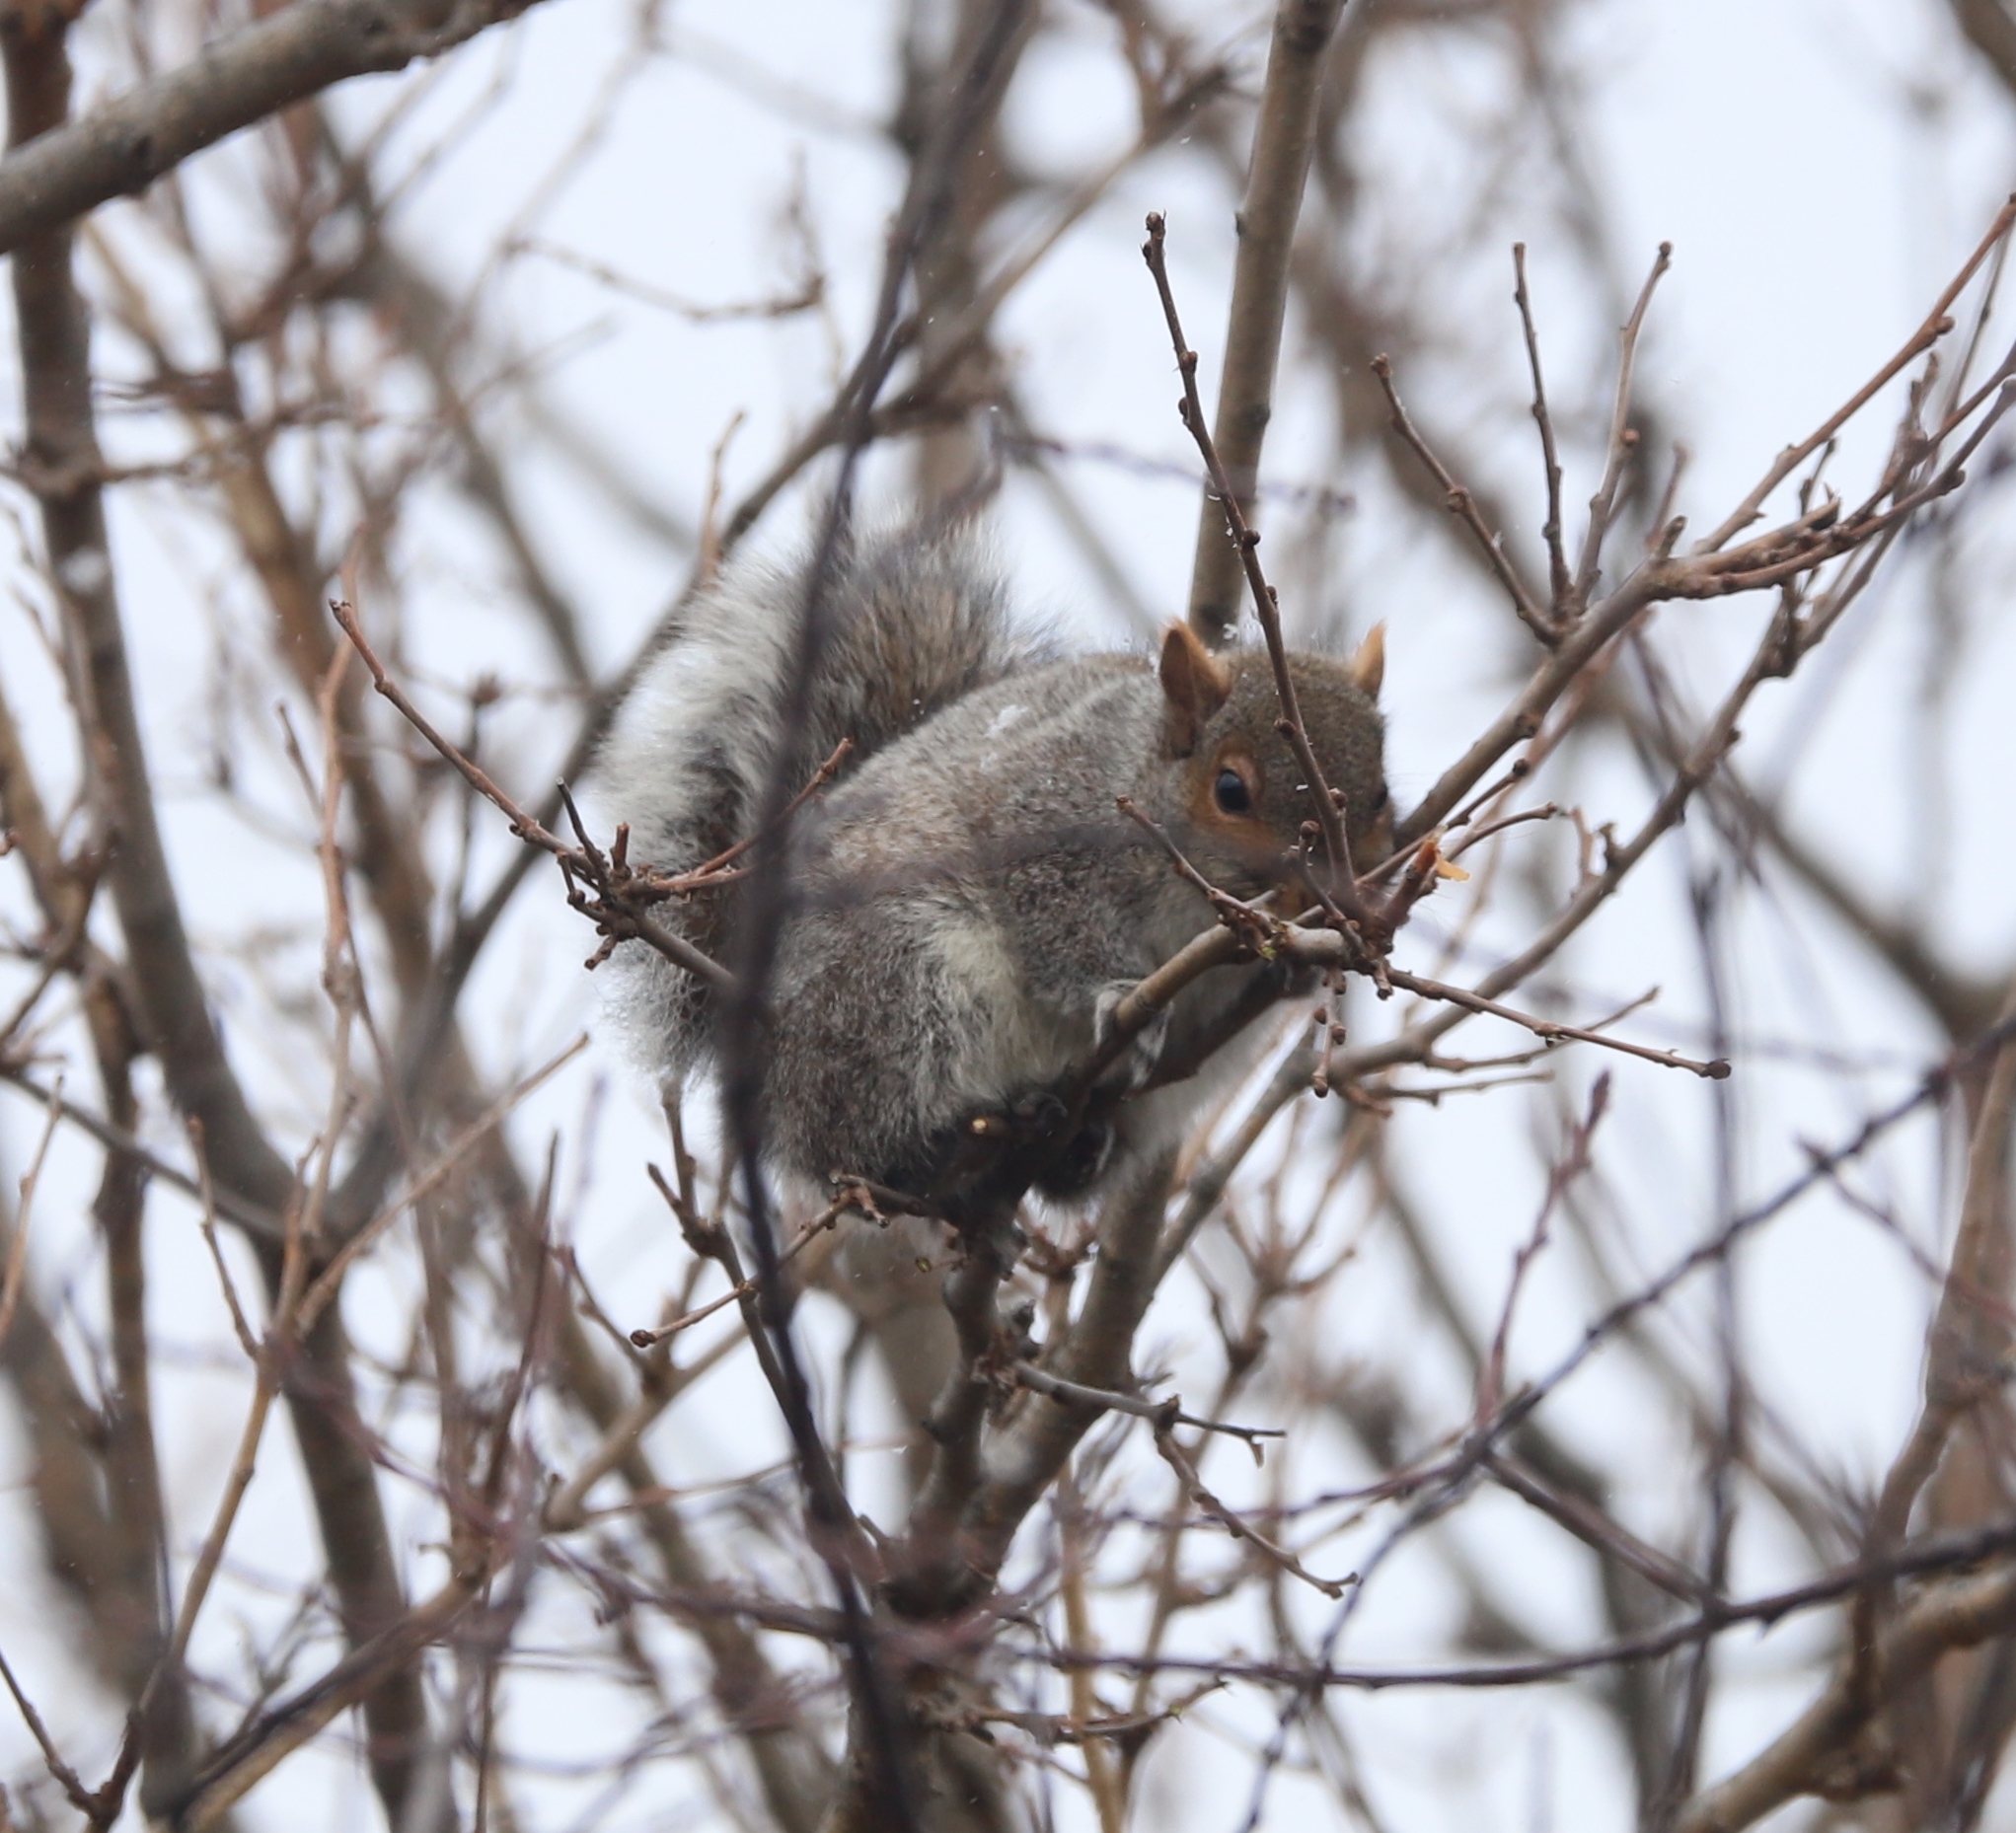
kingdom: Animalia
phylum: Chordata
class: Mammalia
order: Rodentia
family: Sciuridae
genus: Sciurus
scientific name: Sciurus carolinensis
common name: Eastern gray squirrel
